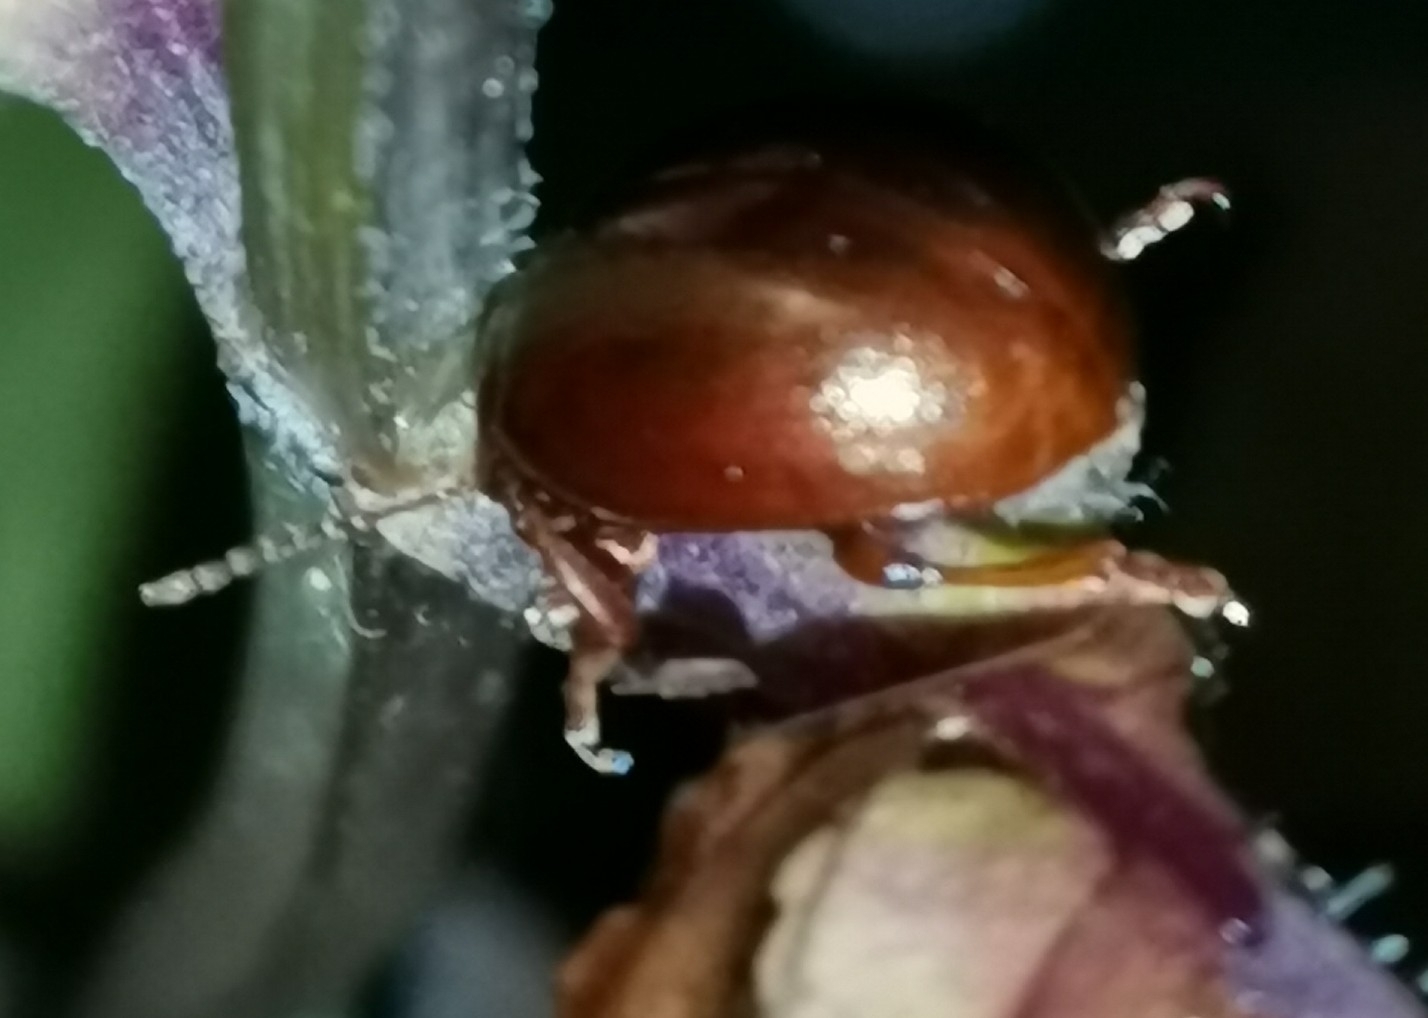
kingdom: Animalia
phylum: Arthropoda
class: Insecta
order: Coleoptera
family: Chrysomelidae
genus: Chrysolina
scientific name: Chrysolina staphylaea
